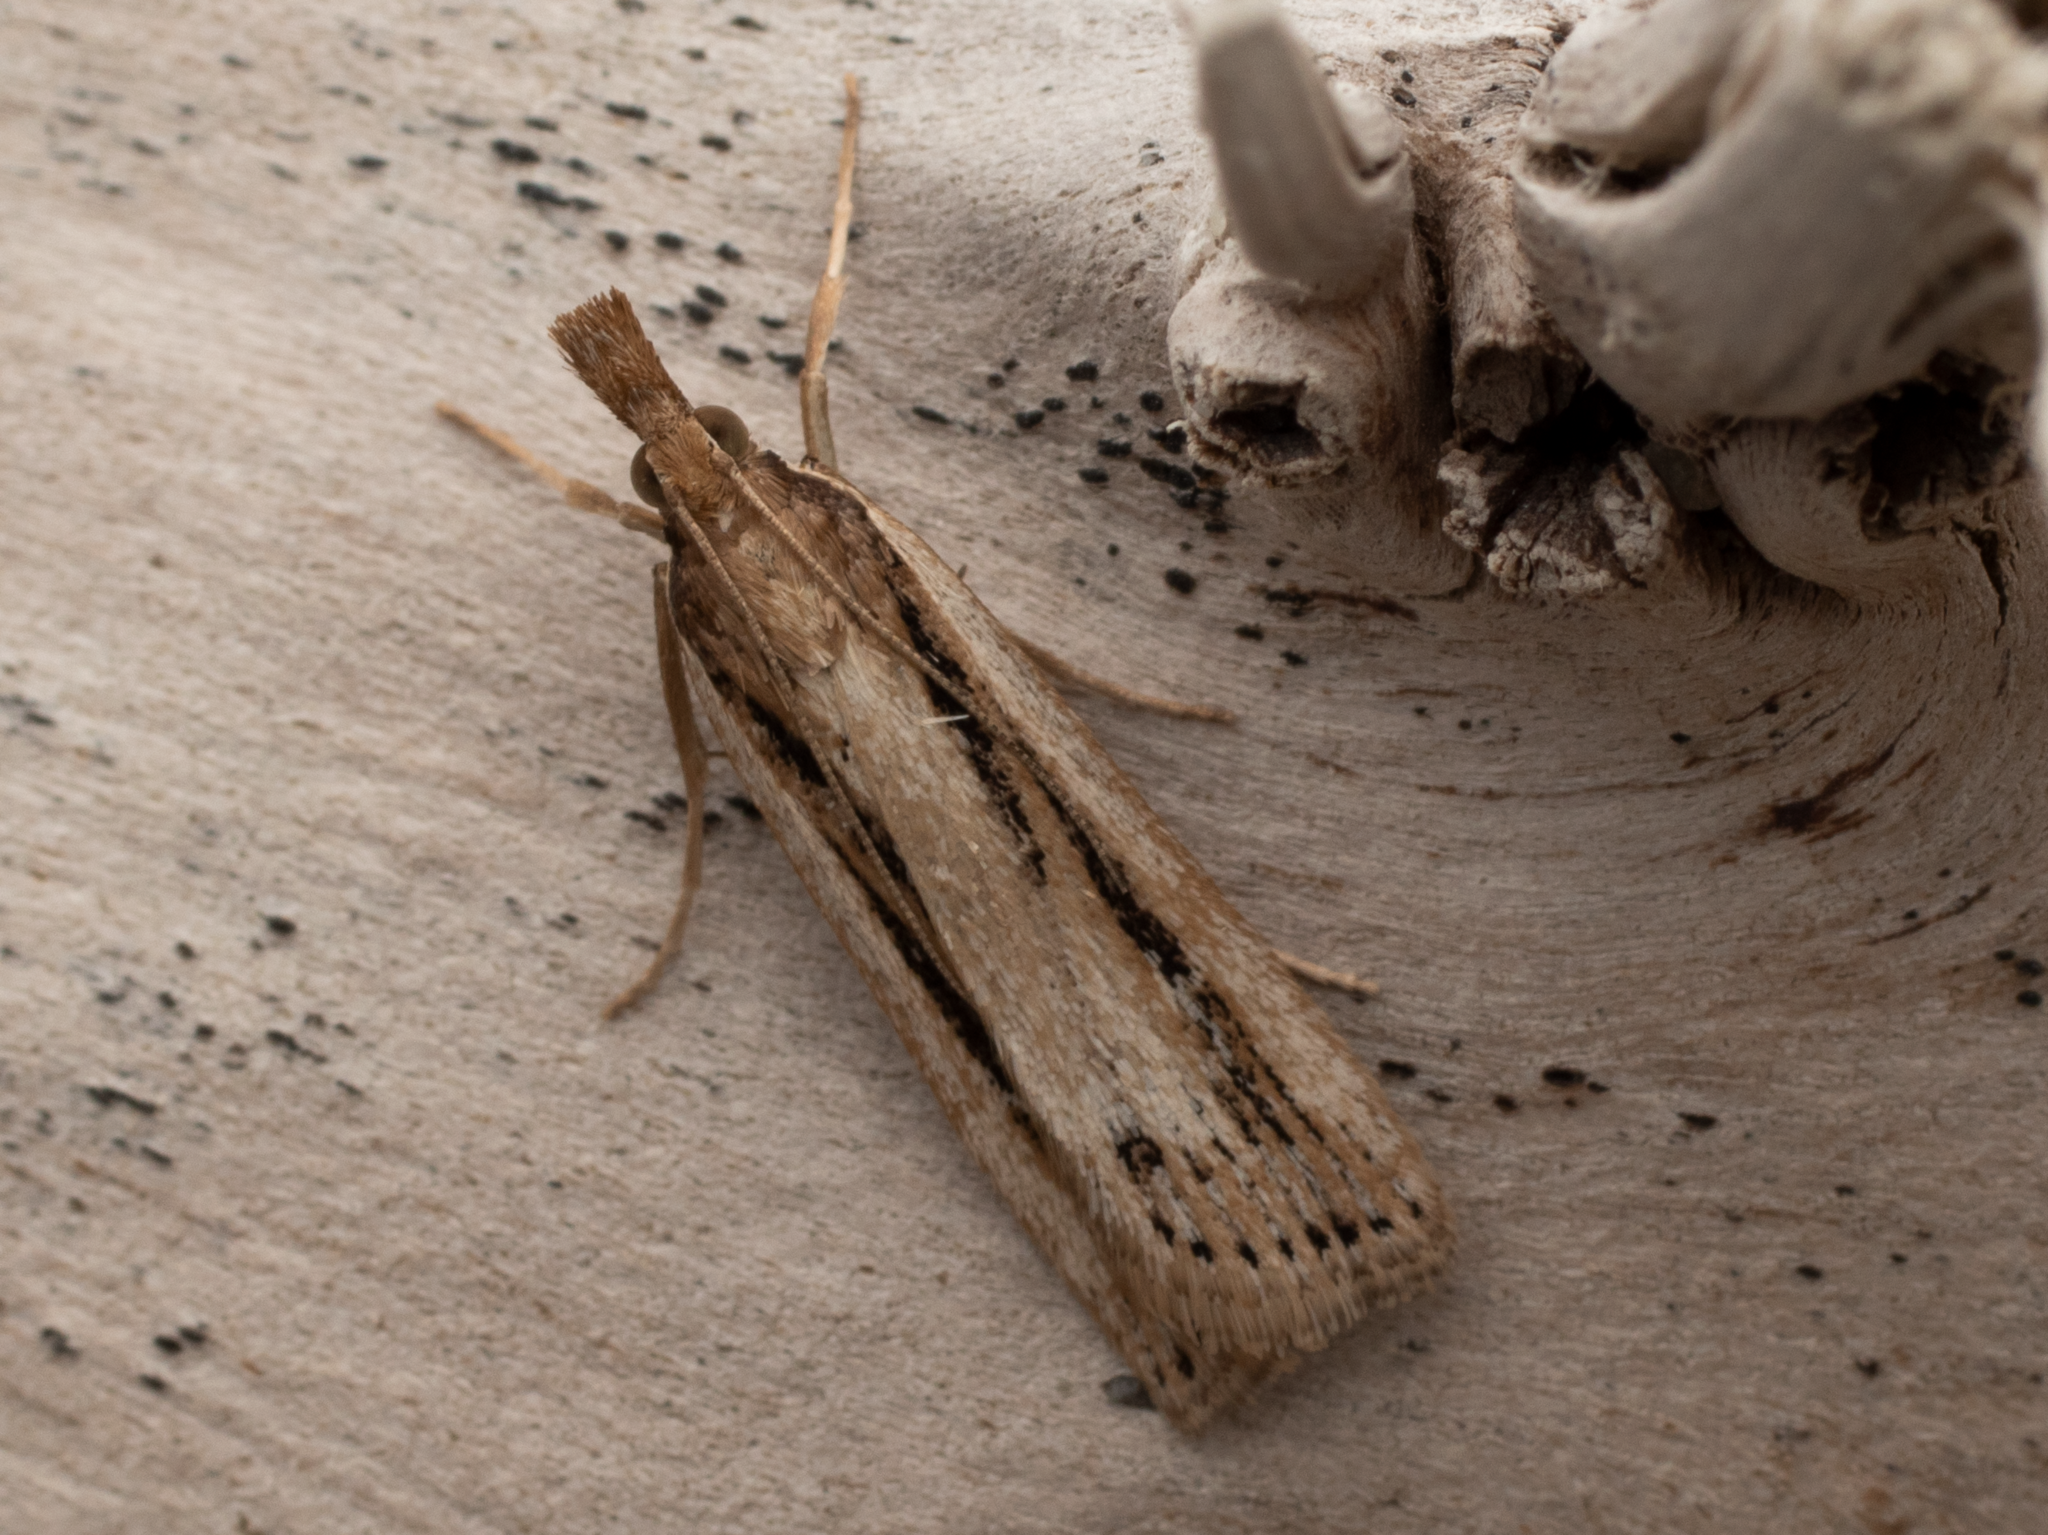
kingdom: Animalia
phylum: Arthropoda
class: Insecta
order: Lepidoptera
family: Crambidae
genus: Eudonia
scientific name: Eudonia sabulosella
